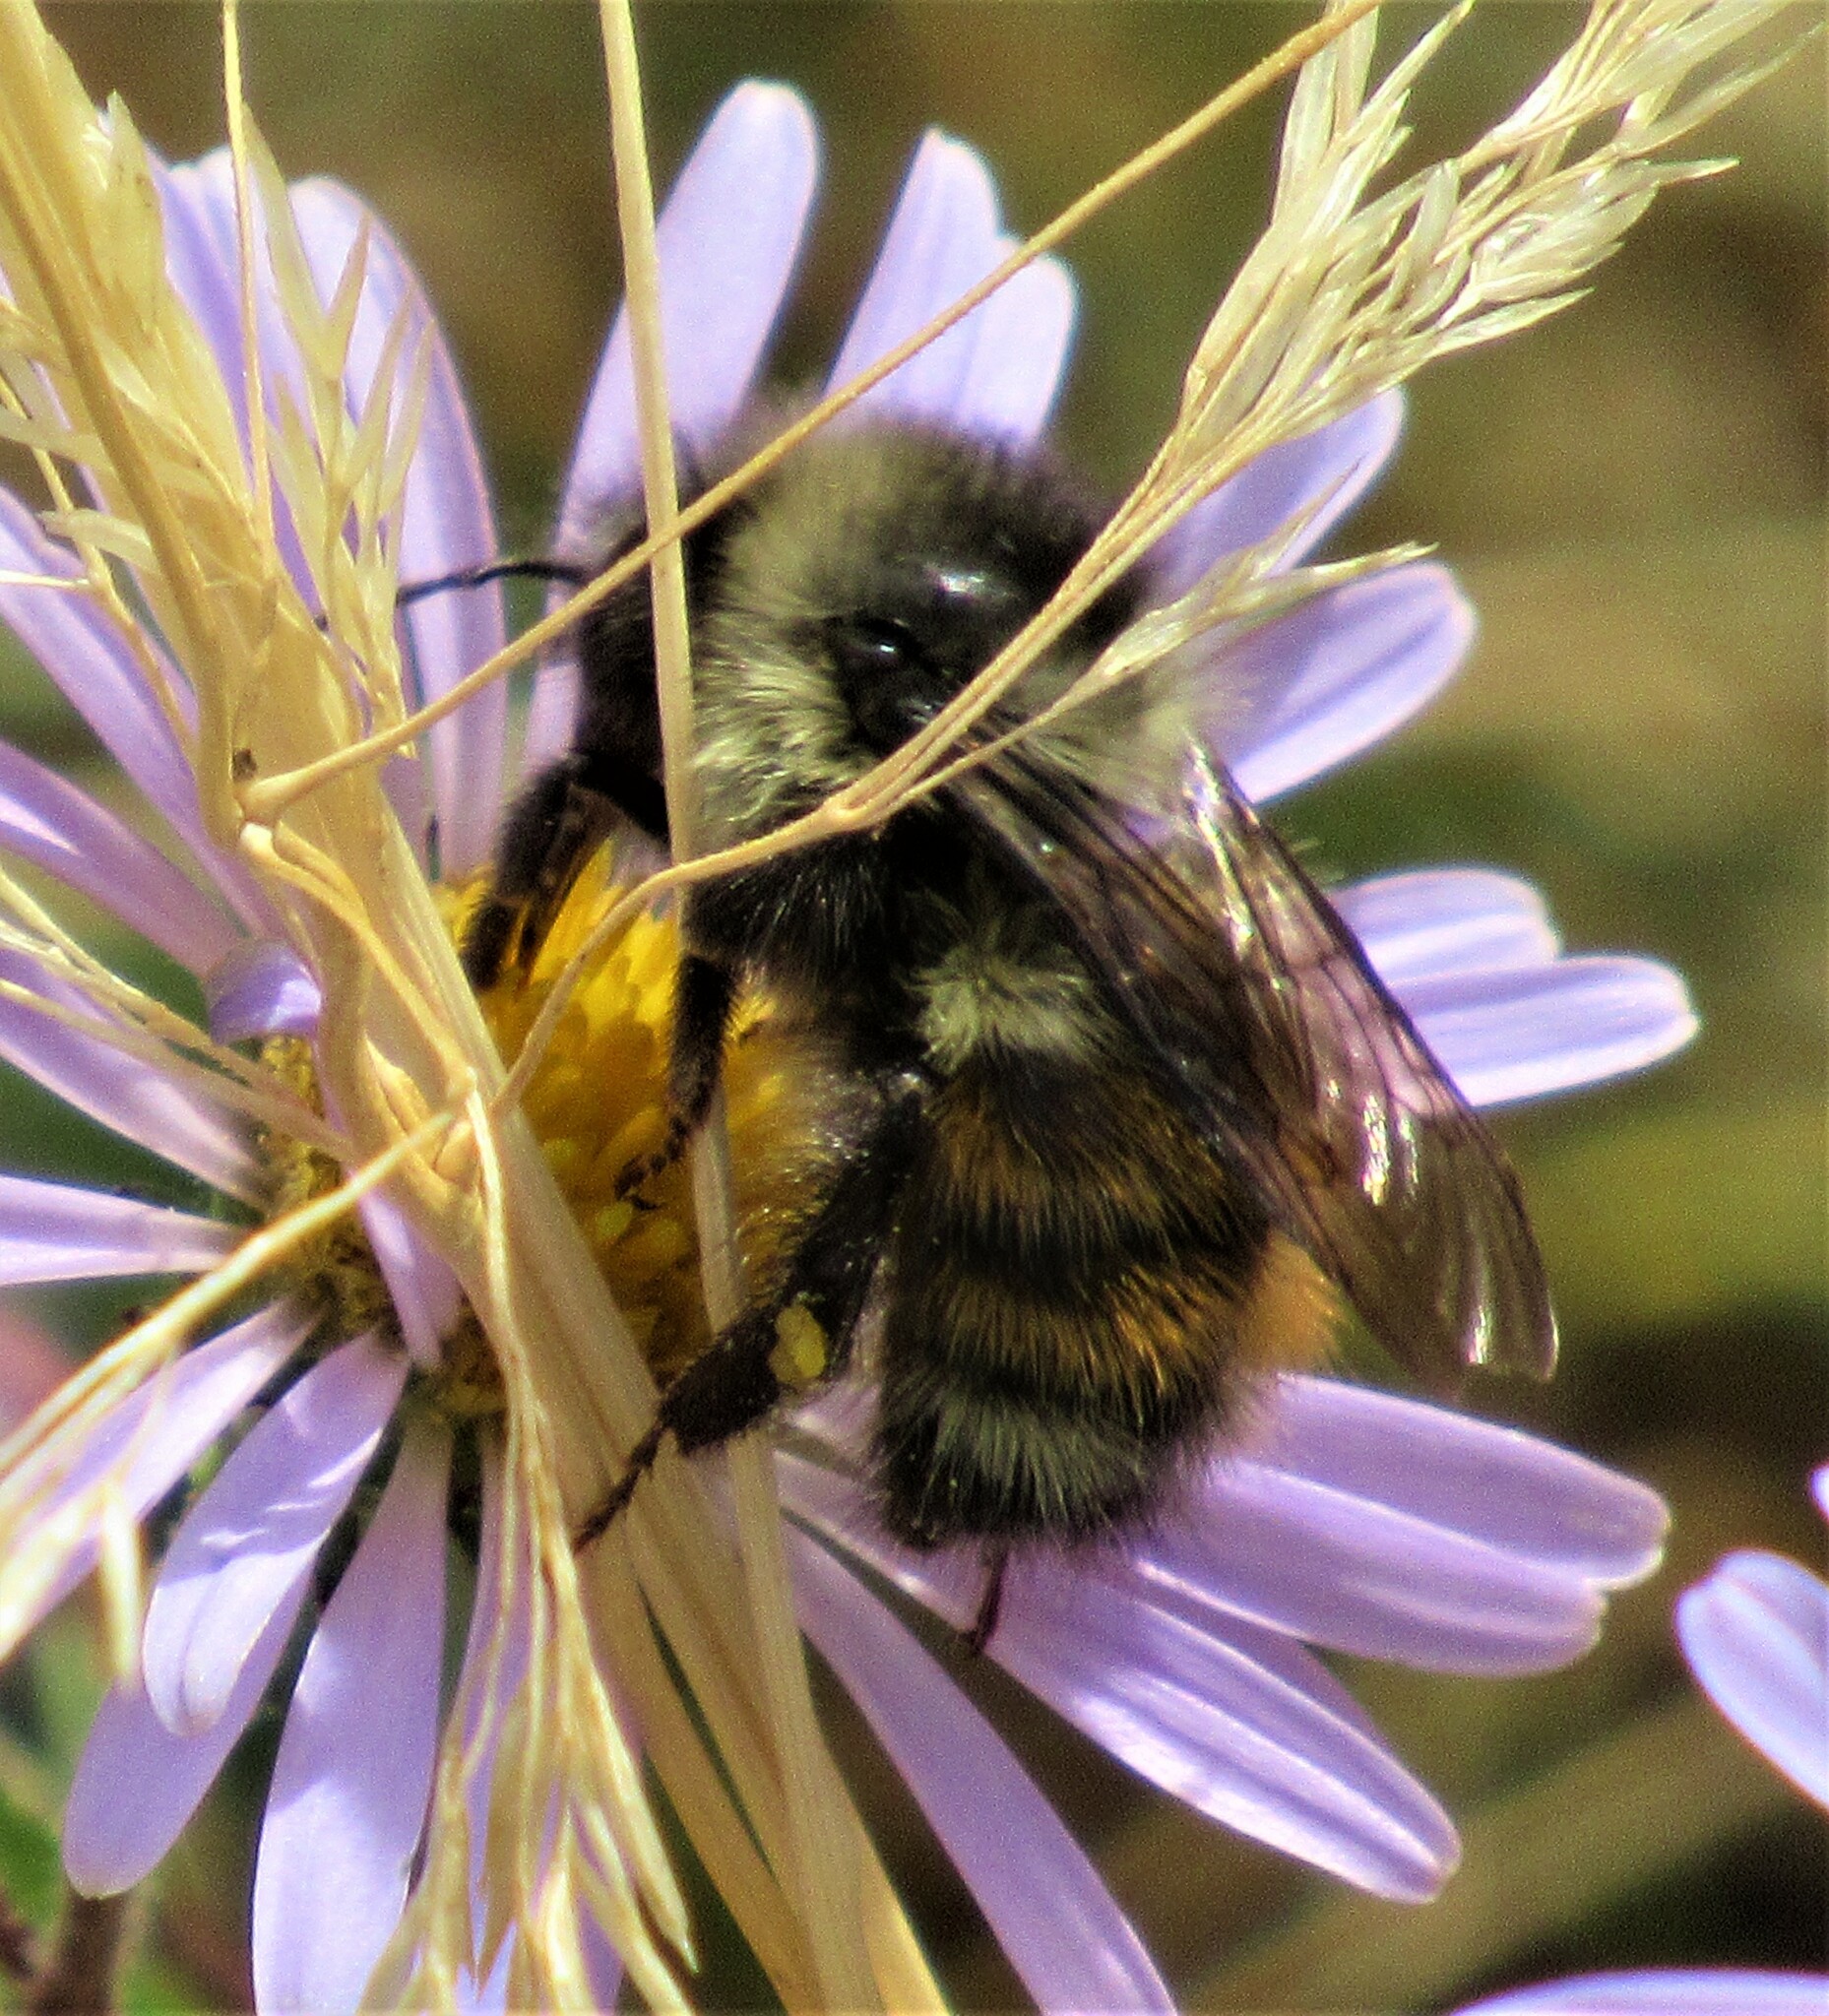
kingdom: Animalia
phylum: Arthropoda
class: Insecta
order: Hymenoptera
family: Apidae
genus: Bombus
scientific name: Bombus melanopygus
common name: Black tail bumble bee
